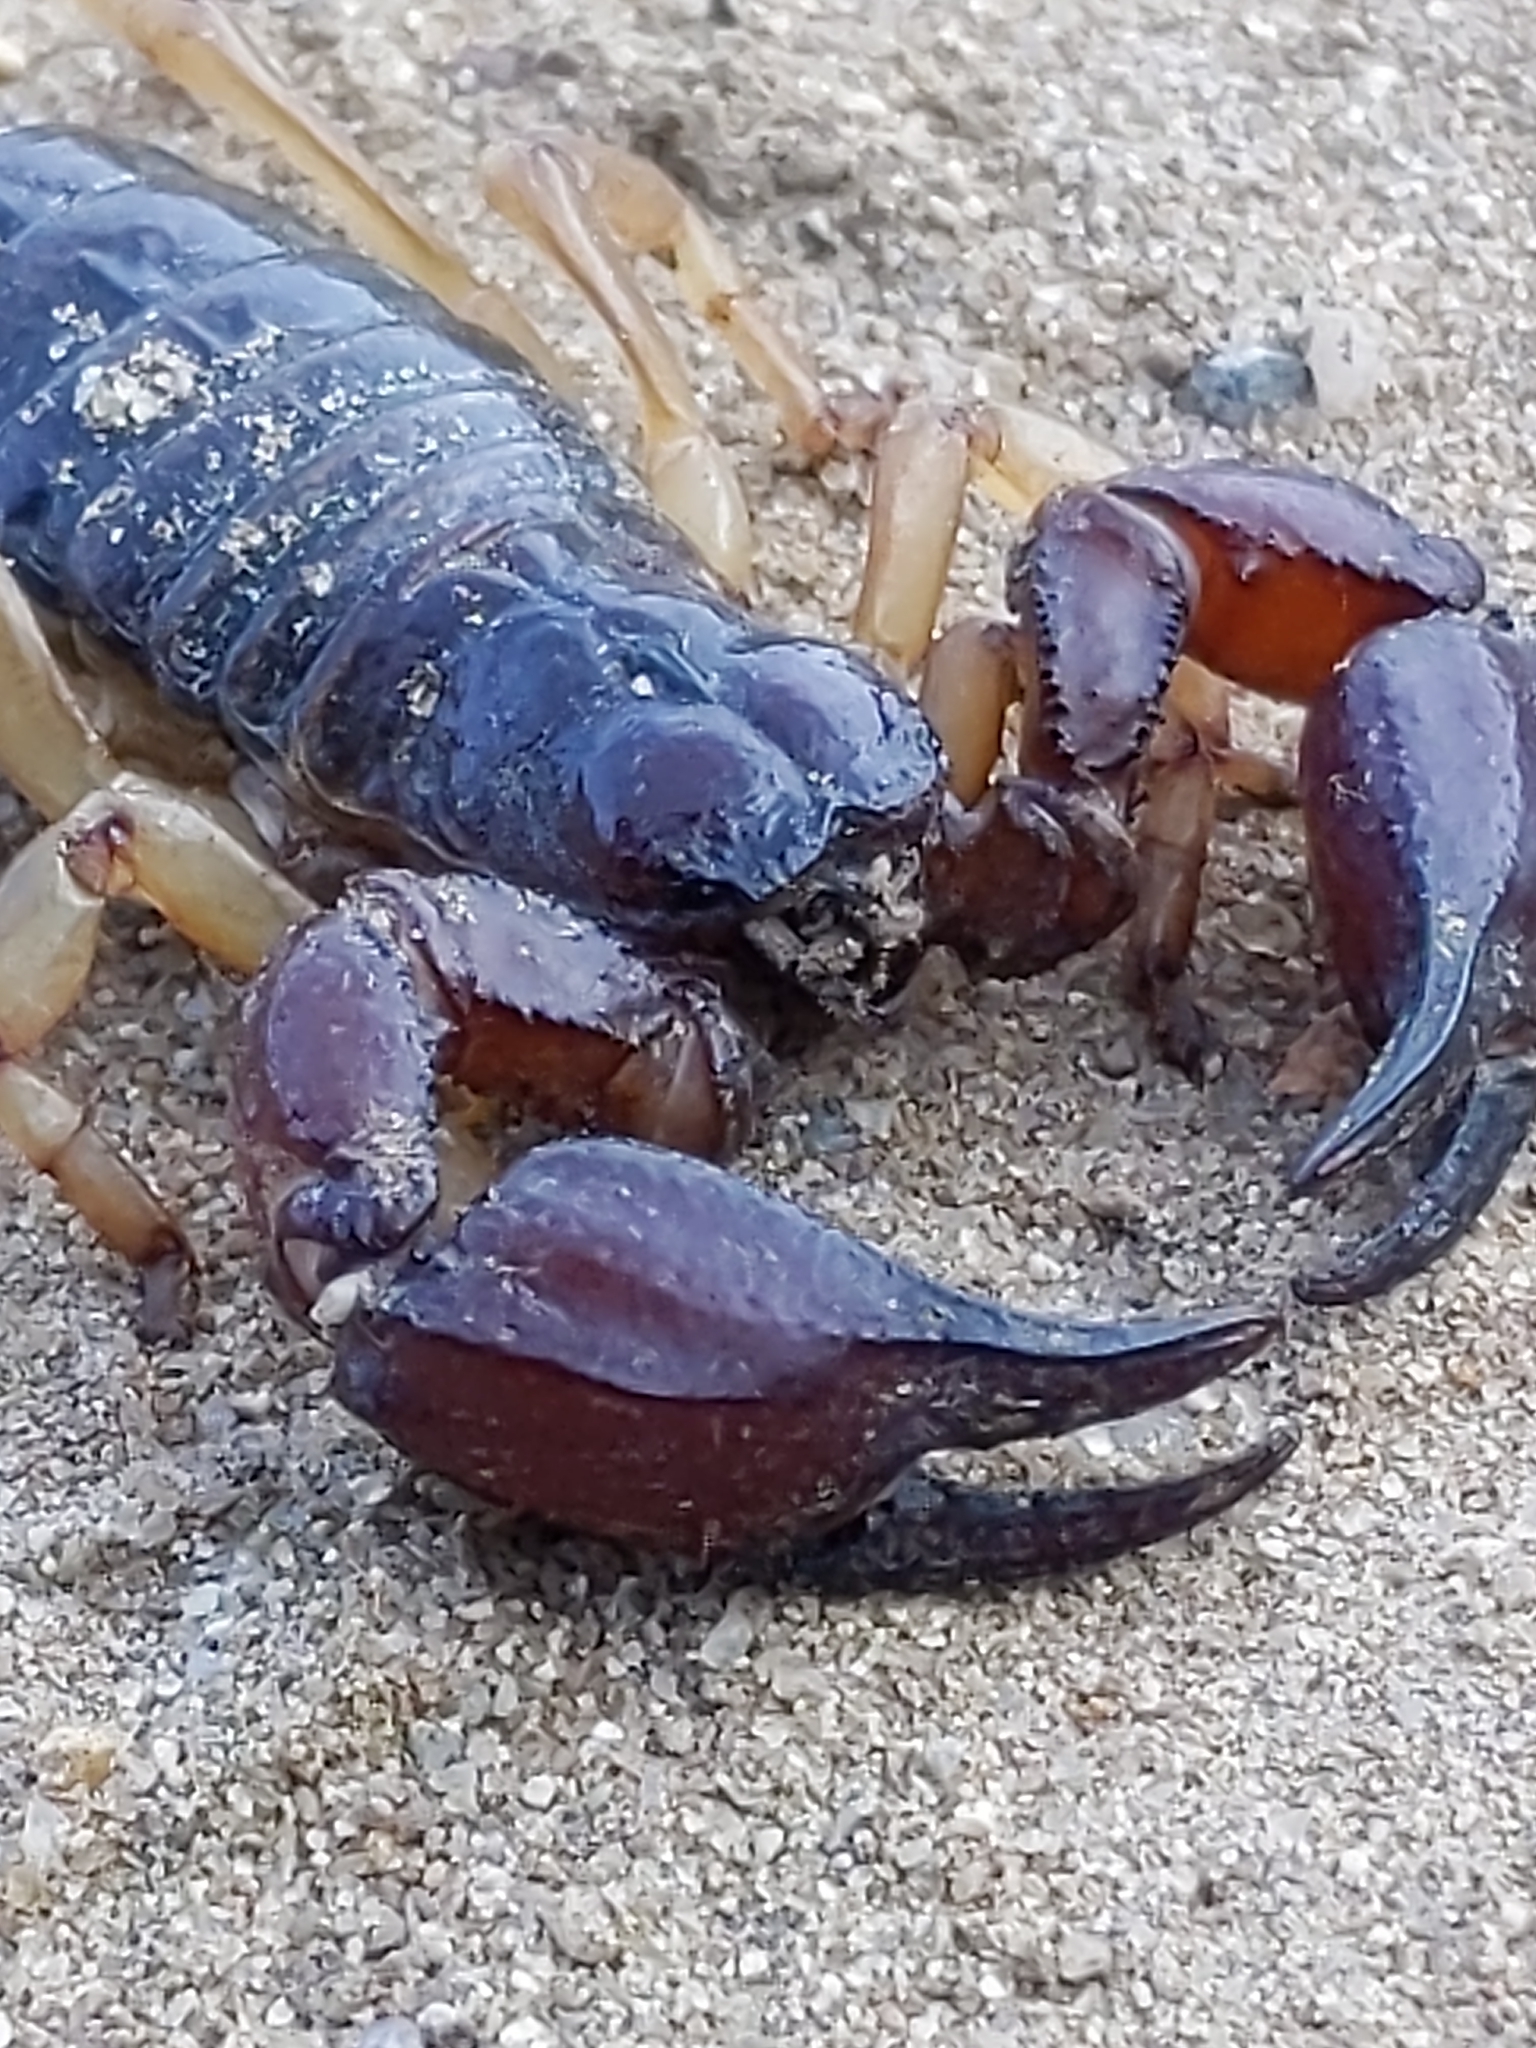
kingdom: Animalia
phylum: Arthropoda
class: Arachnida
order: Scorpiones
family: Chactidae
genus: Anuroctonus
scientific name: Anuroctonus pococki
